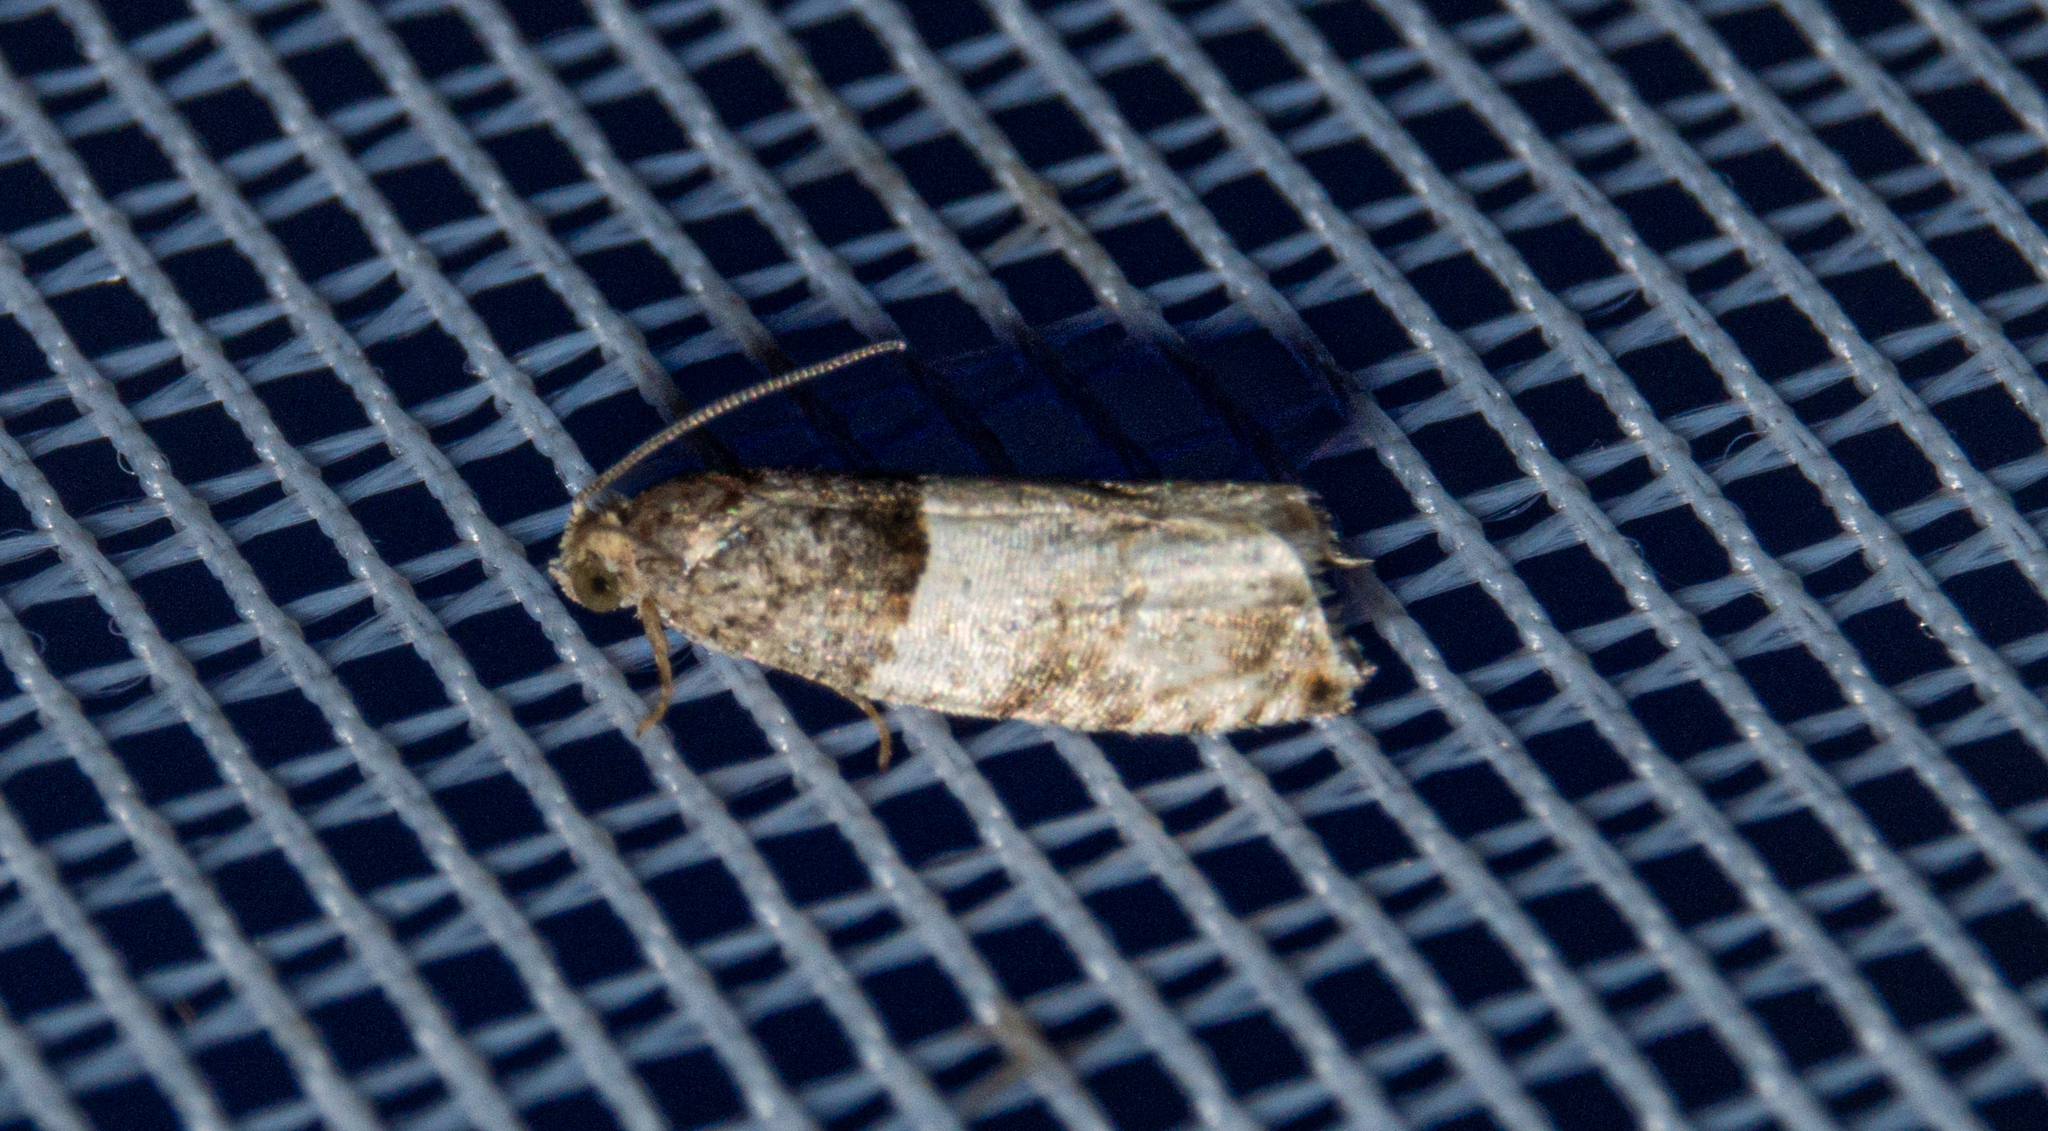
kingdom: Animalia
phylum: Arthropoda
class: Insecta
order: Lepidoptera
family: Tortricidae
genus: Gypsonoma
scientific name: Gypsonoma aceriana
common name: Poplar twig borer
